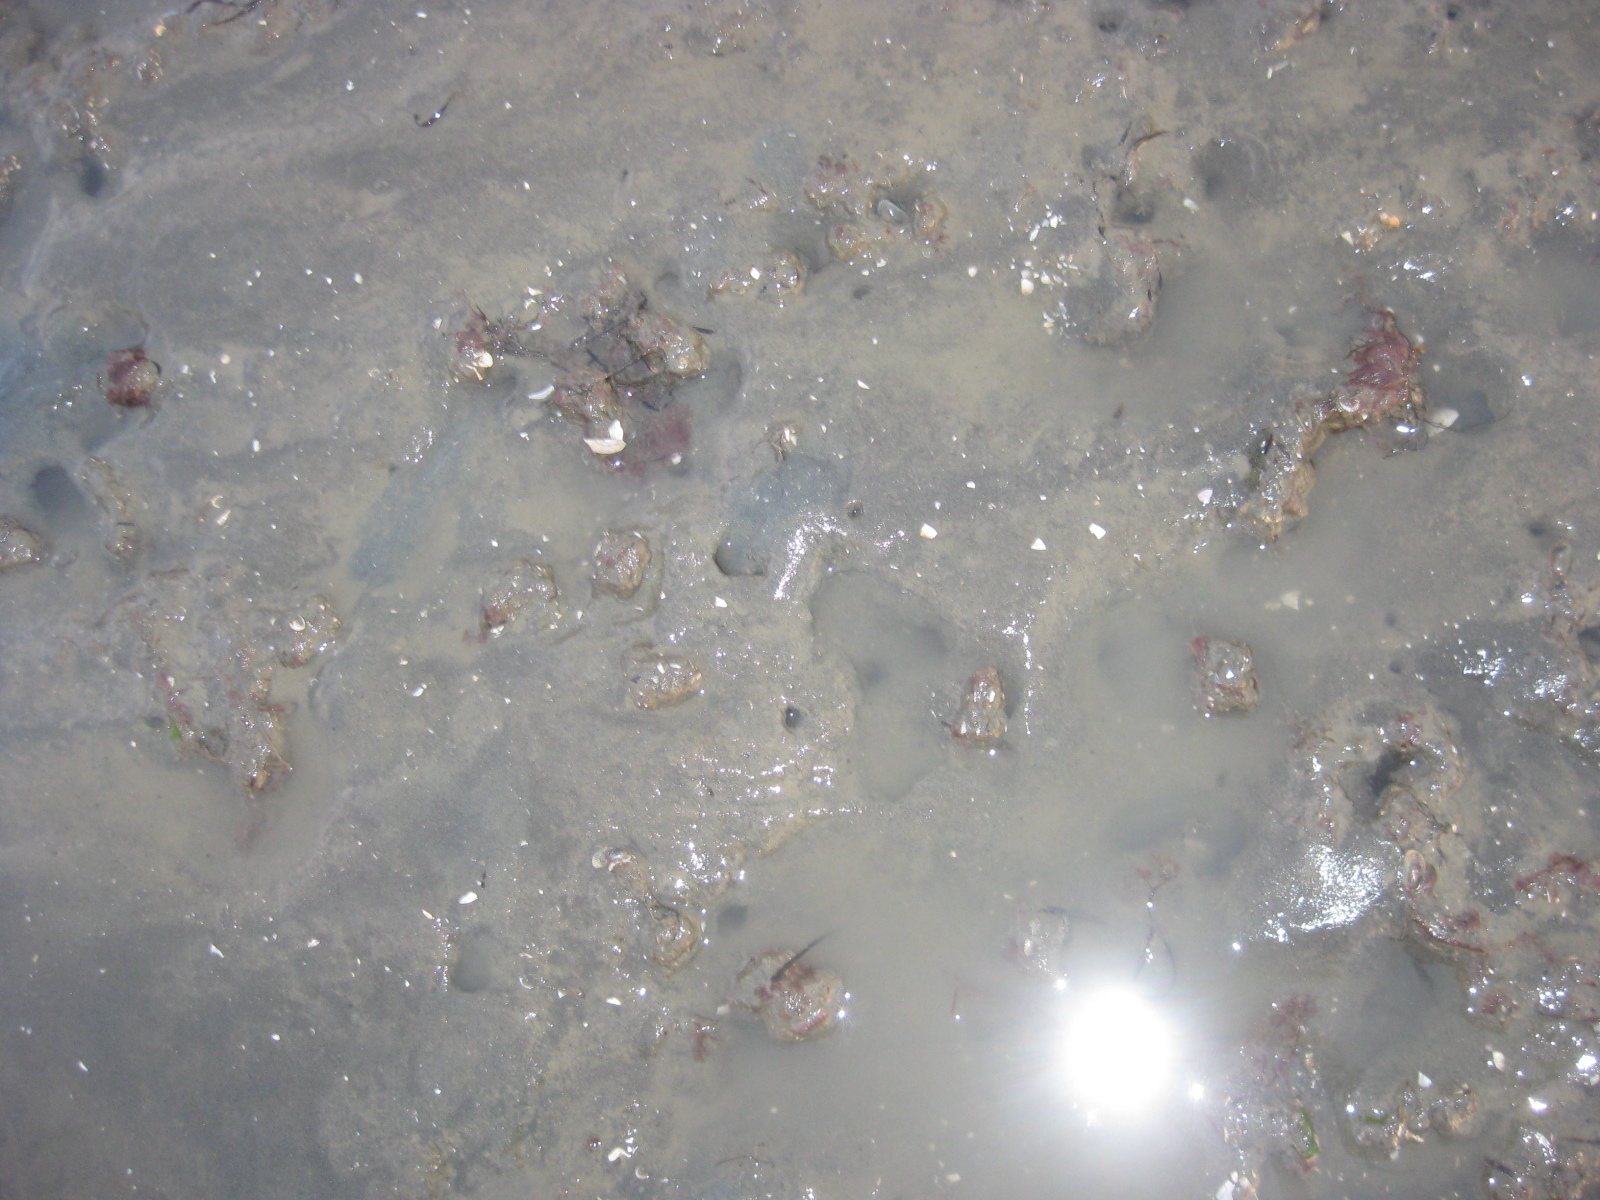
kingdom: Animalia
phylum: Mollusca
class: Bivalvia
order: Mytilida
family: Mytilidae
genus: Arcuatula
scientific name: Arcuatula senhousia
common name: Asian mussel
